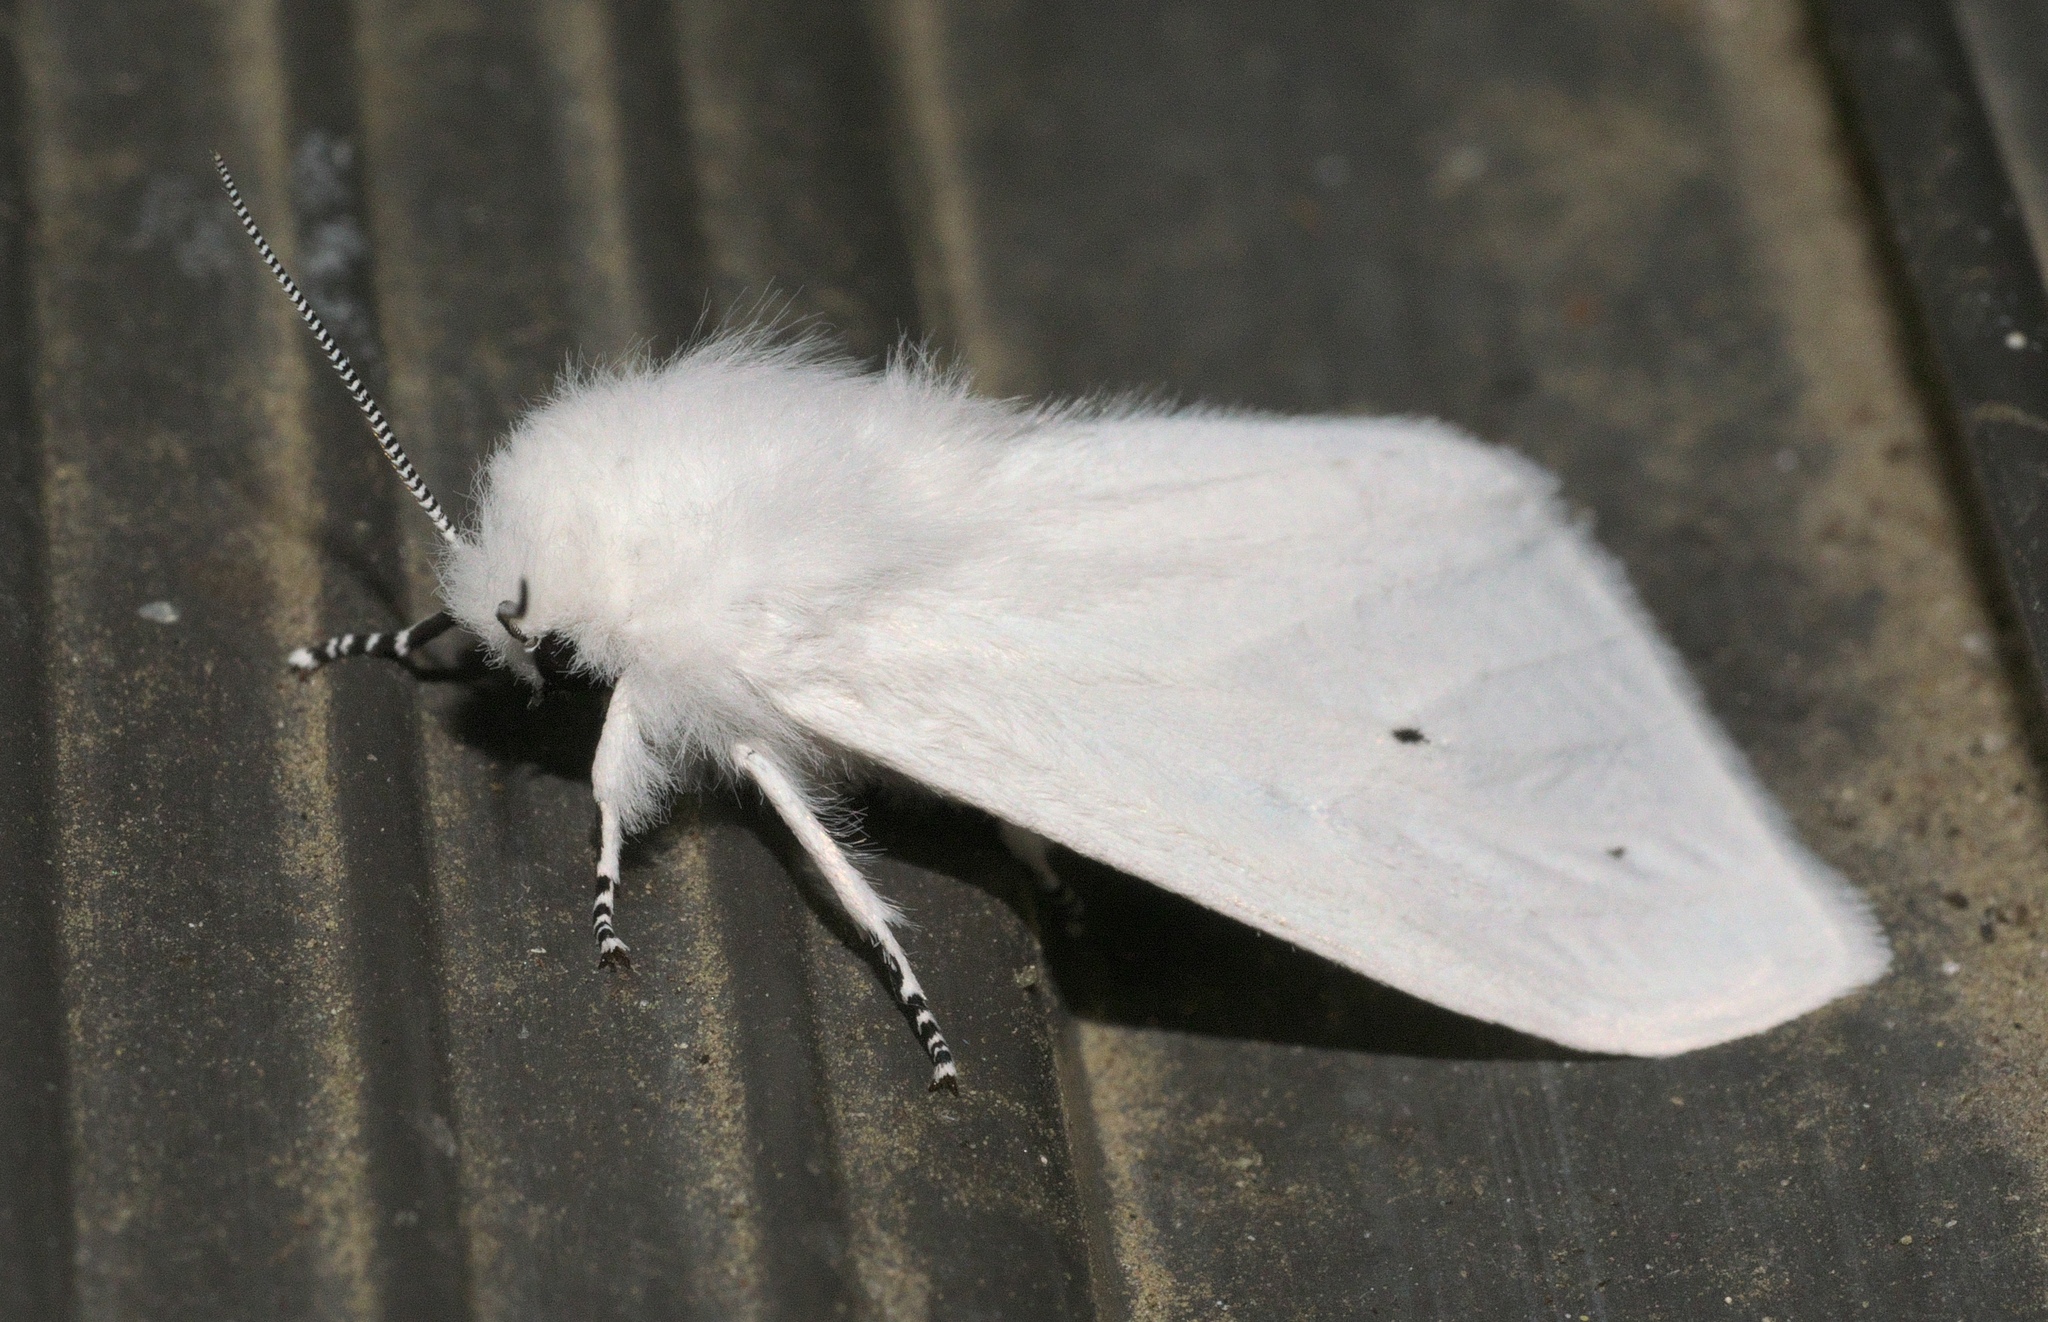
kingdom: Animalia
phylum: Arthropoda
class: Insecta
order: Lepidoptera
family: Erebidae
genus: Spilosoma
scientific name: Spilosoma virginica
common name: Virginia tiger moth
